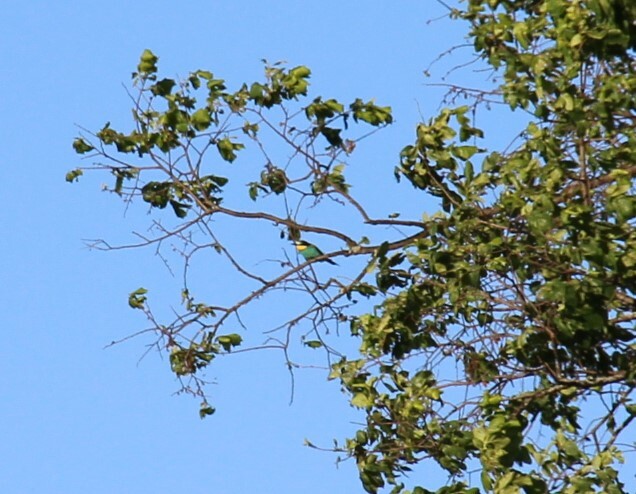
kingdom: Animalia
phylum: Chordata
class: Aves
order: Coraciiformes
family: Meropidae
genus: Merops
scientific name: Merops apiaster
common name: European bee-eater
